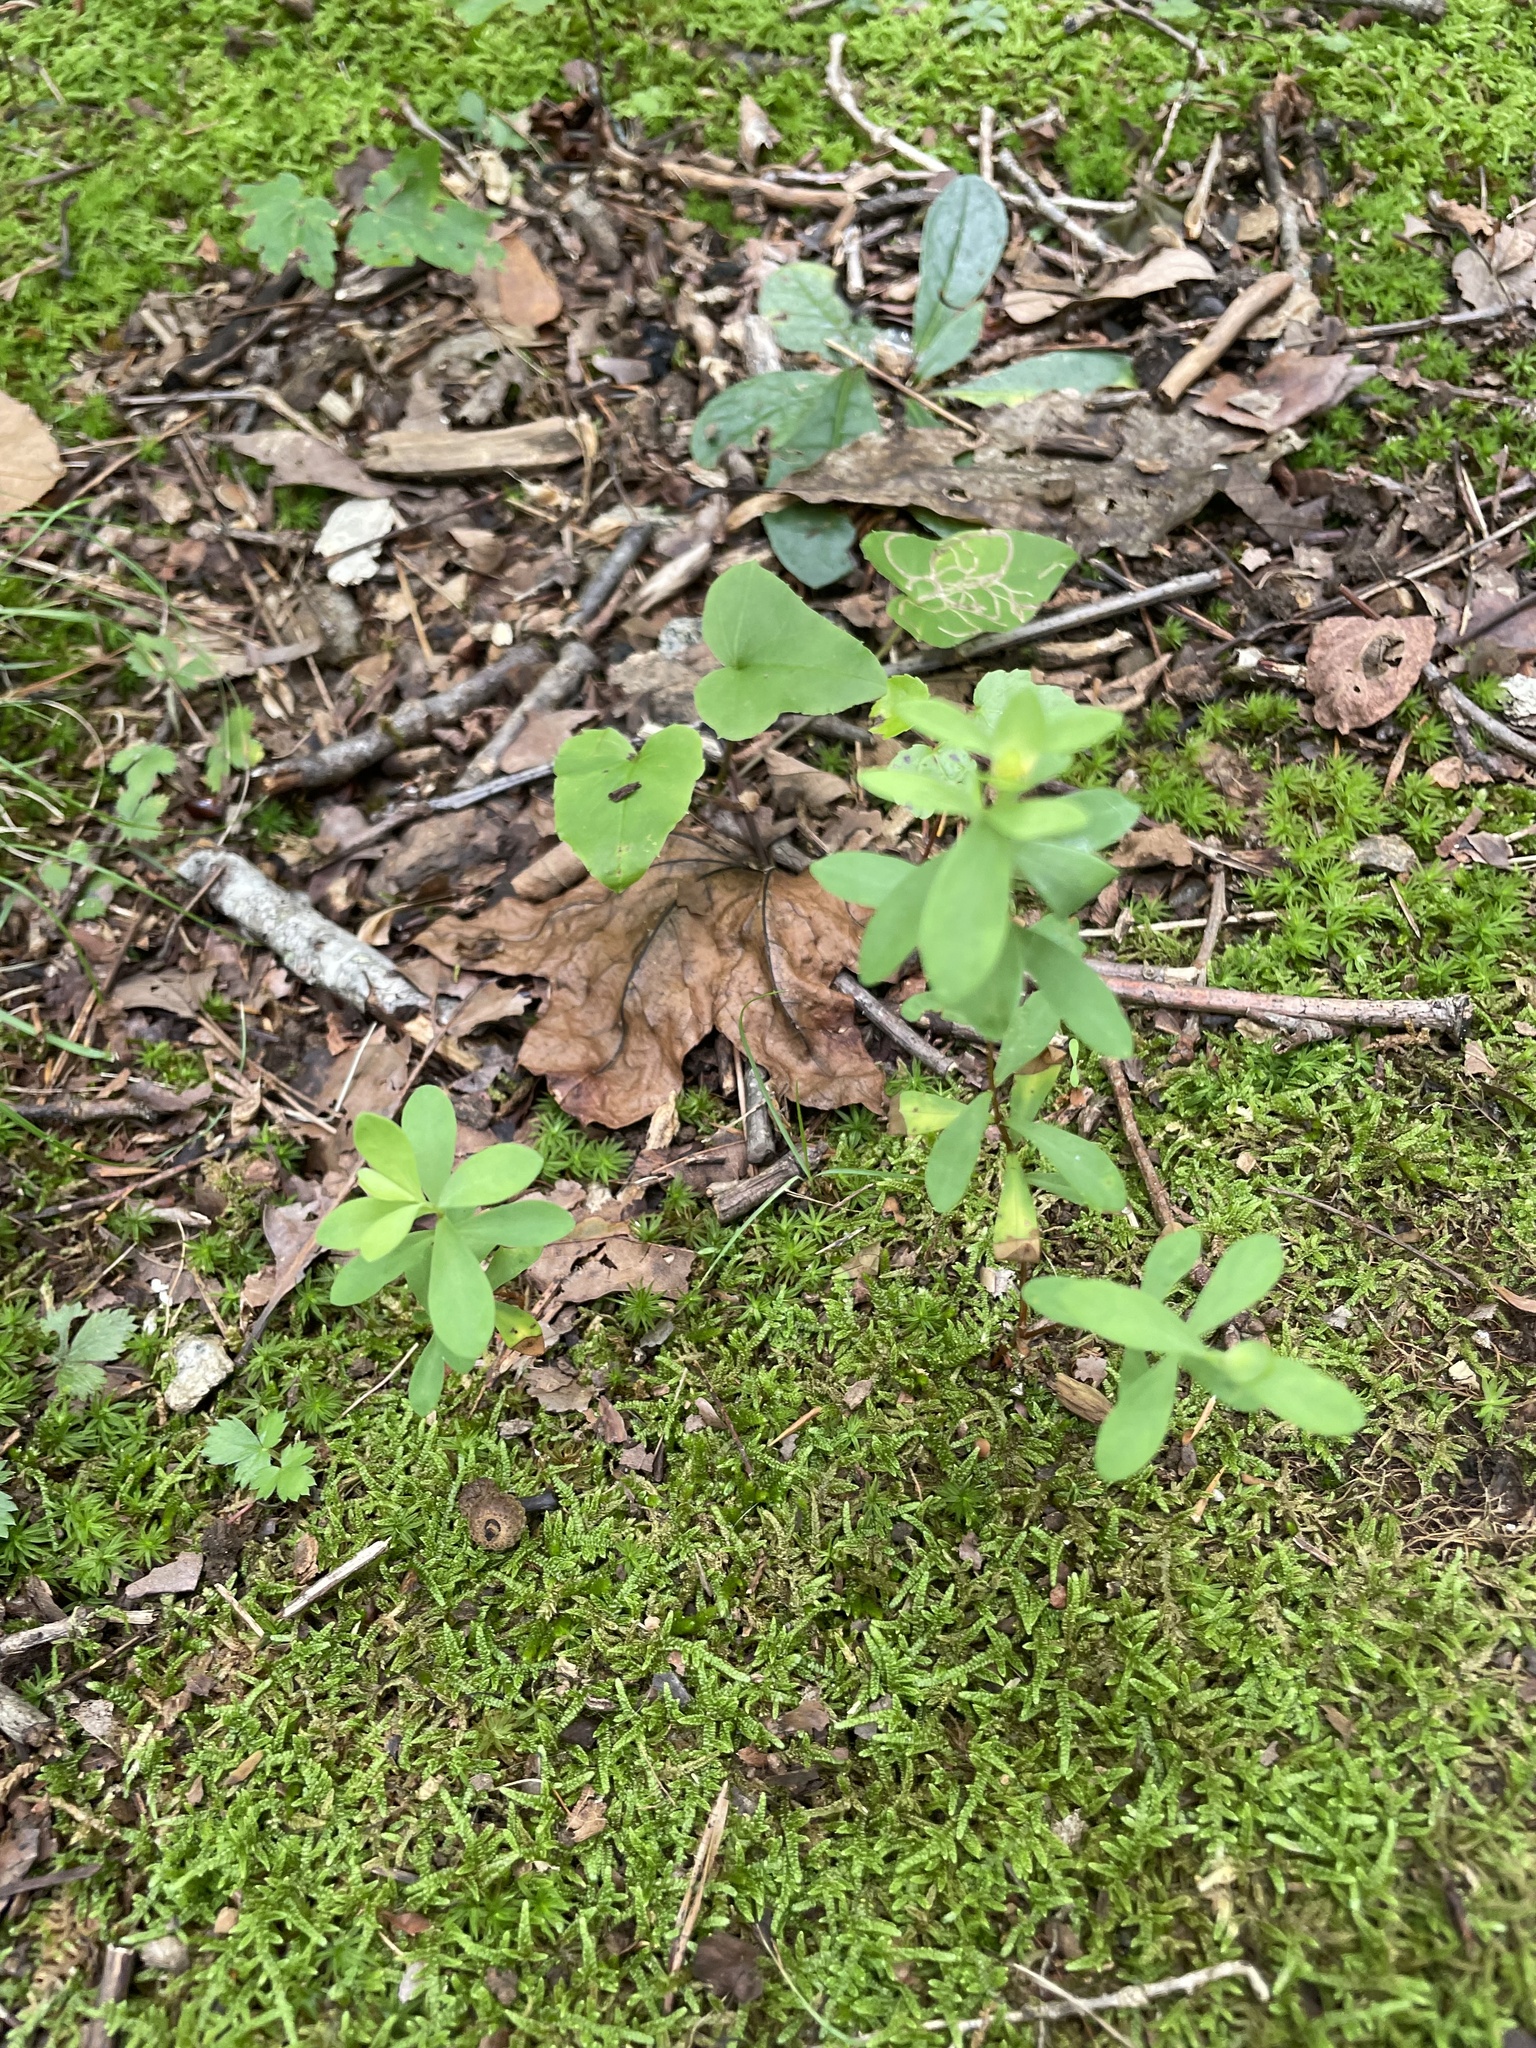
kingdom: Plantae
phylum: Tracheophyta
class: Magnoliopsida
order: Malpighiales
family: Hypericaceae
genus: Hypericum
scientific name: Hypericum hypericoides
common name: St. andrew's cross
